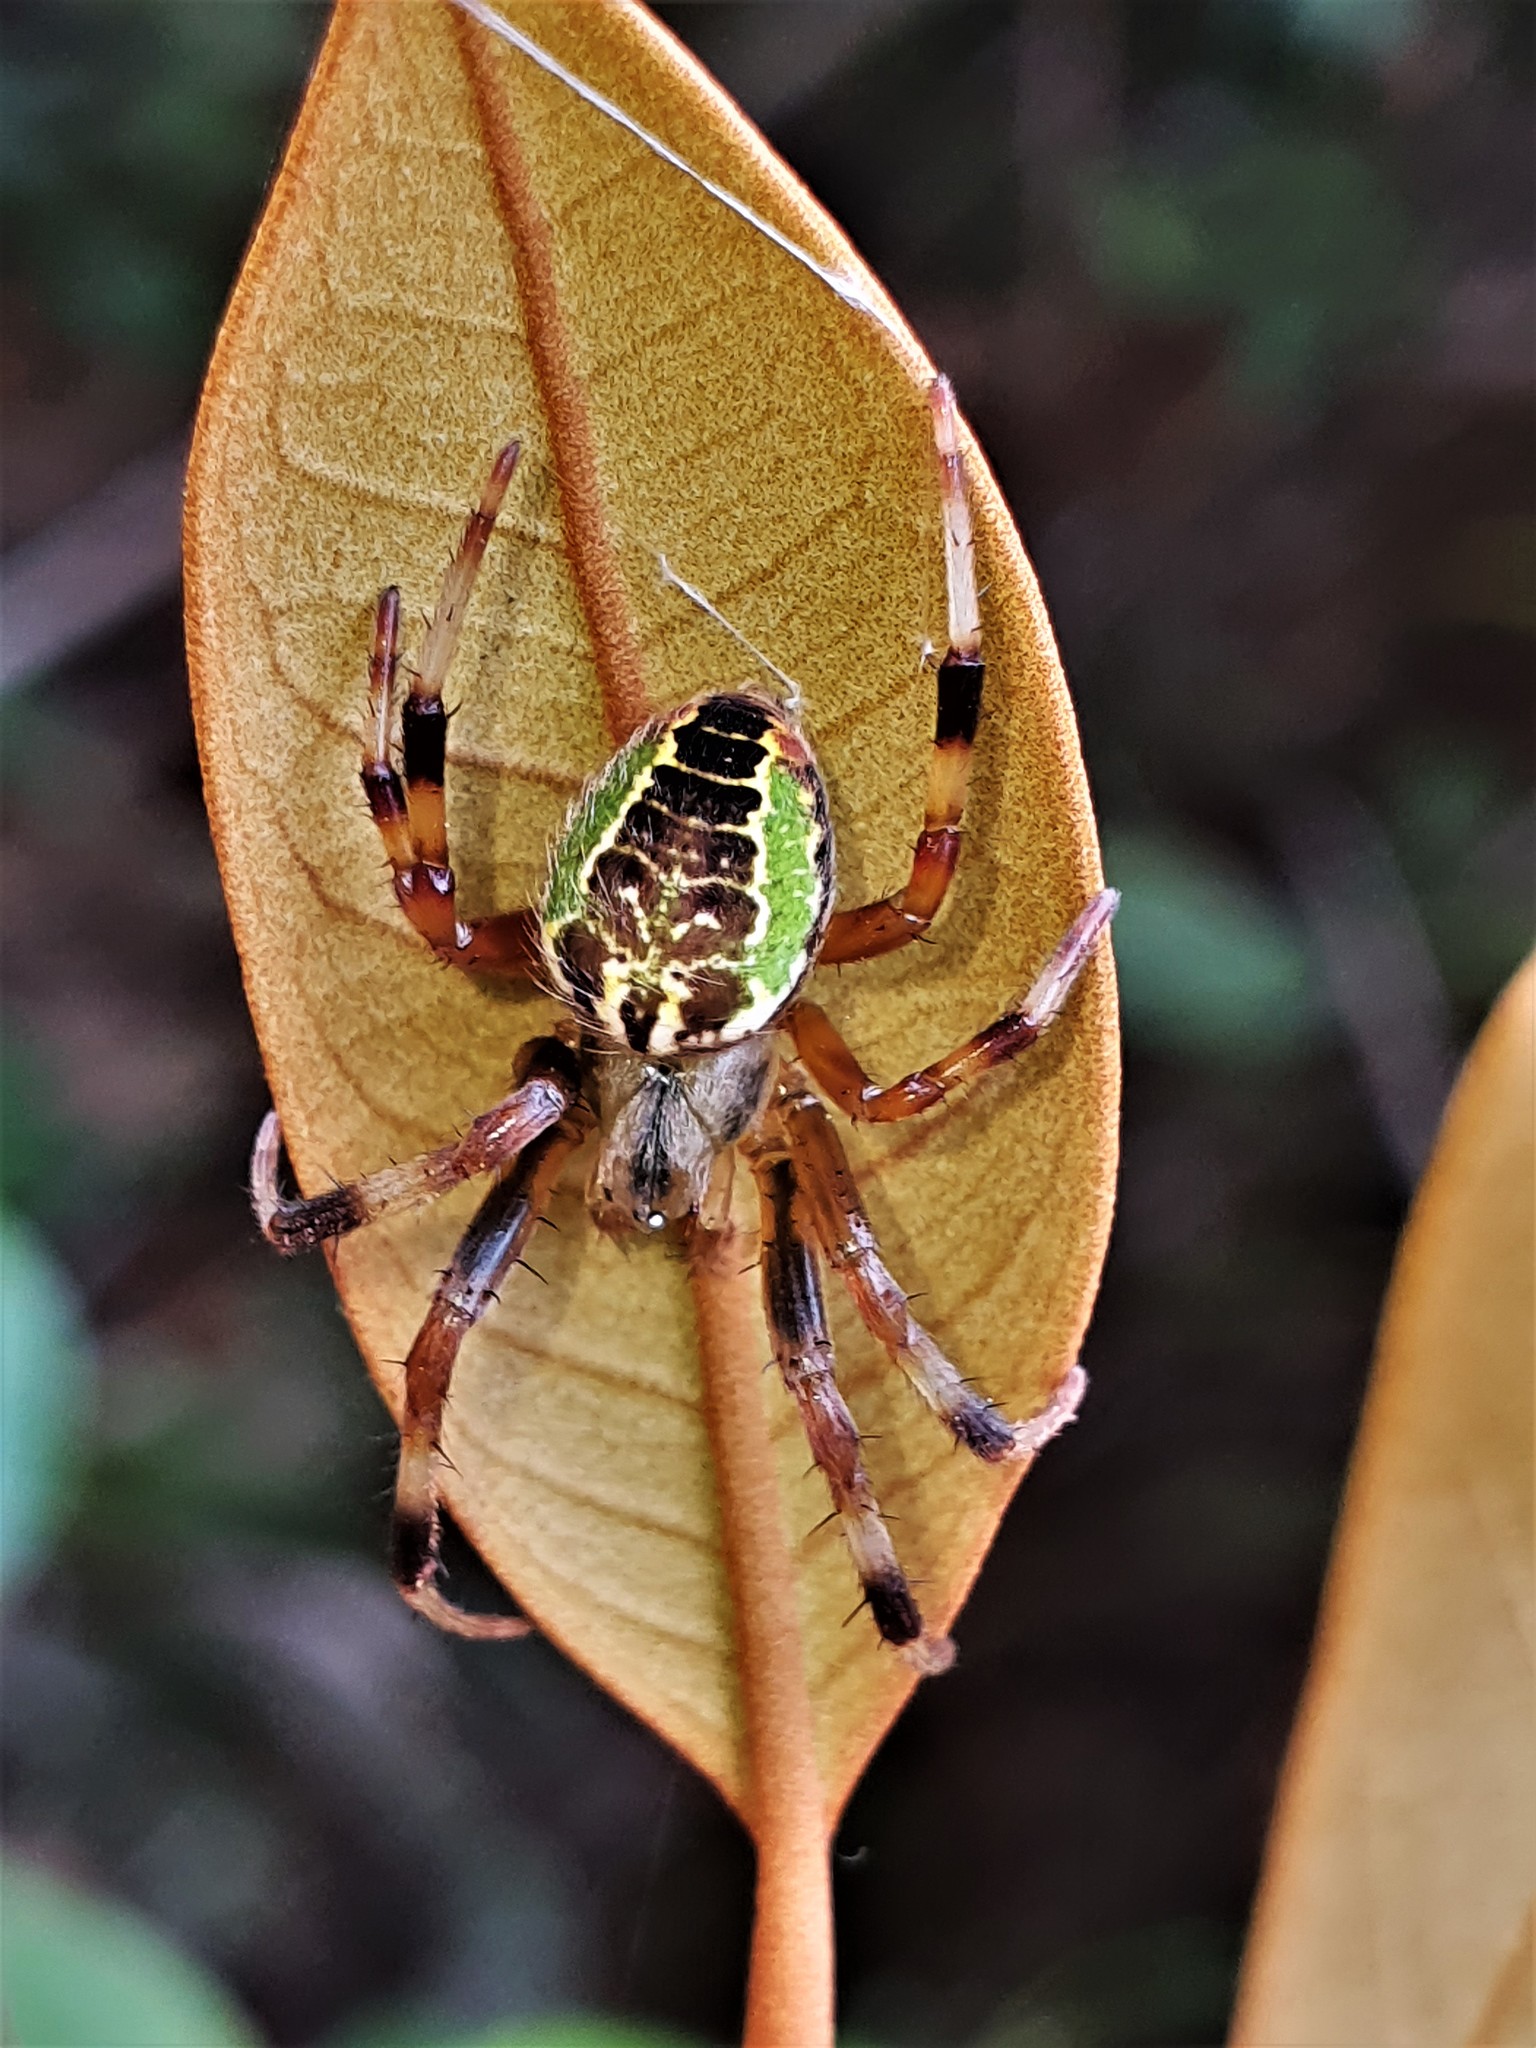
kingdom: Animalia
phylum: Arthropoda
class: Arachnida
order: Araneae
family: Araneidae
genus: Araneus
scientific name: Araneus venatrix
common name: Orb weavers
